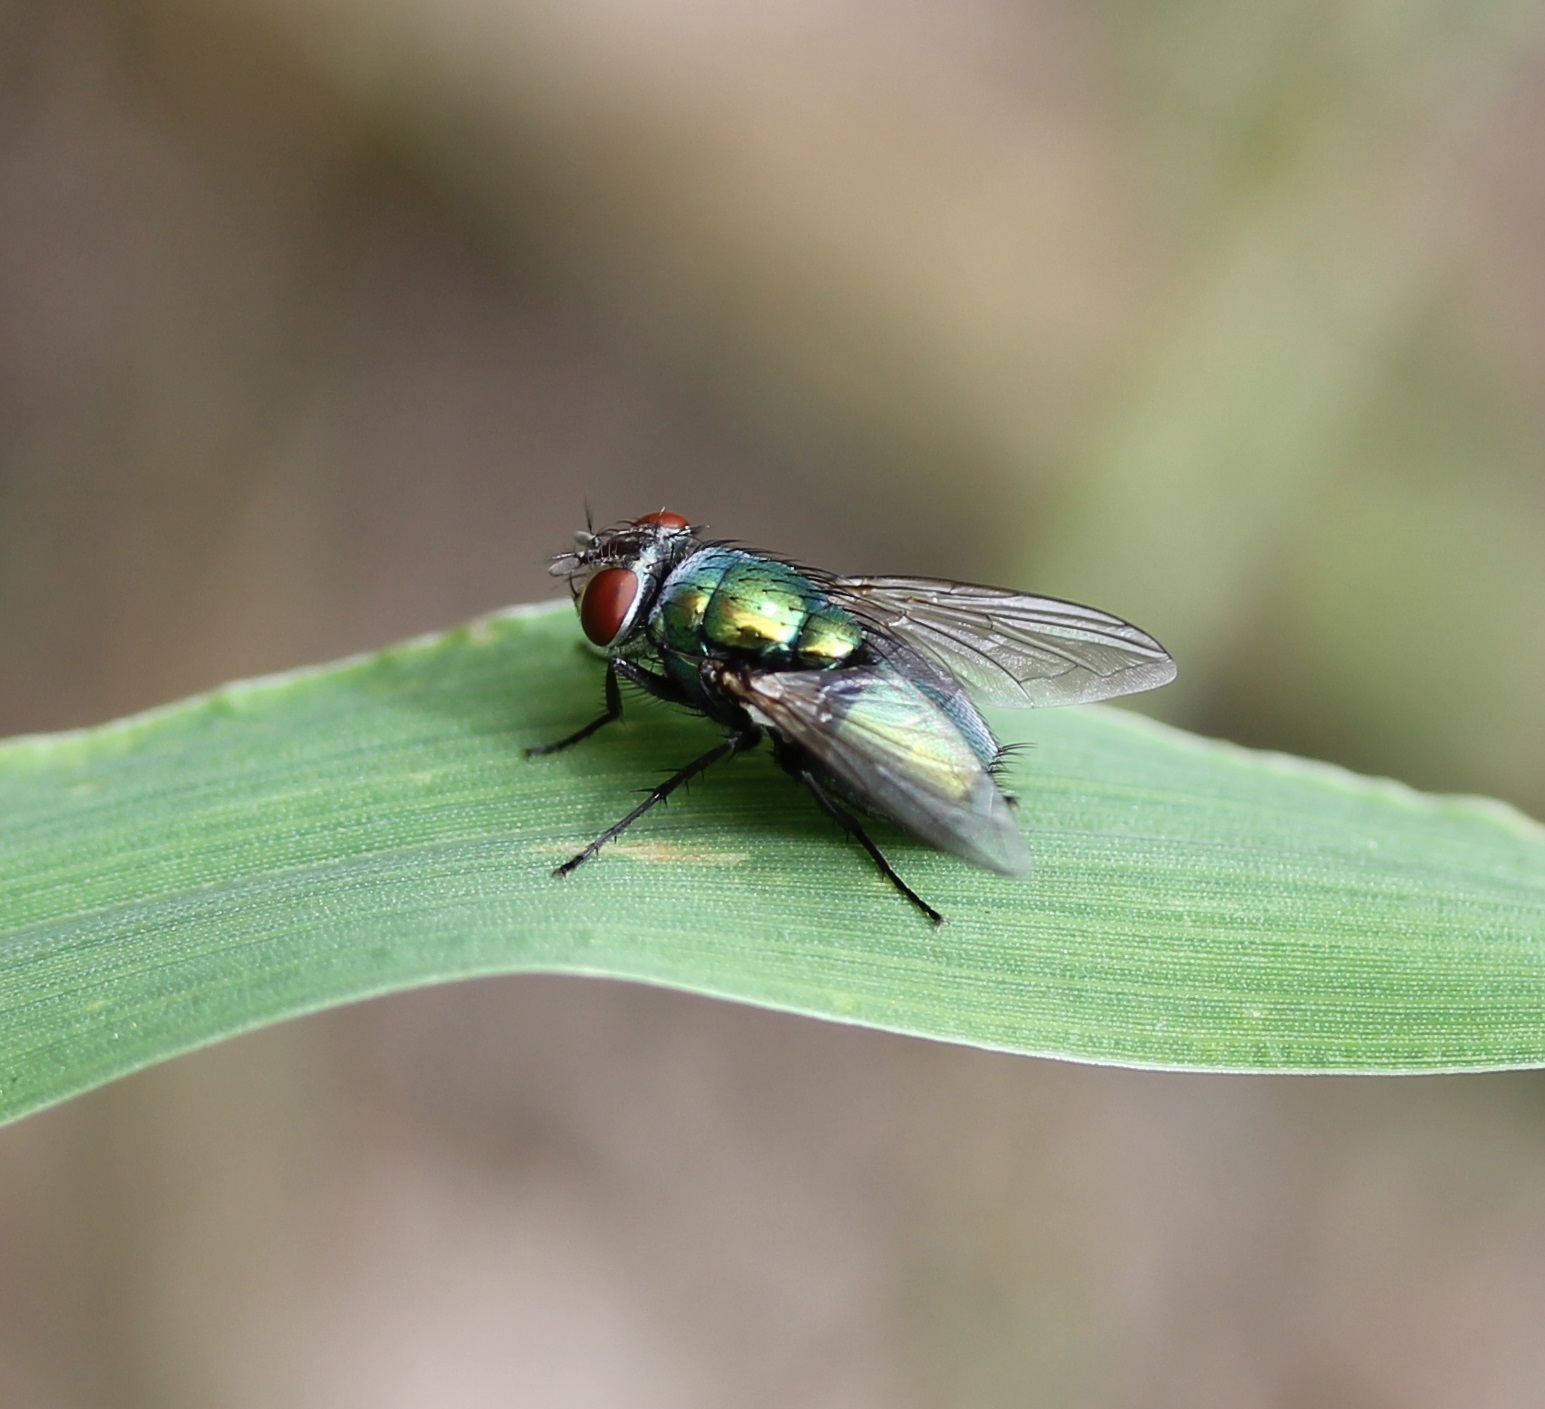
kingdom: Animalia
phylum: Arthropoda
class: Insecta
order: Diptera
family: Calliphoridae
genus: Lucilia
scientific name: Lucilia sericata
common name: Blow fly
